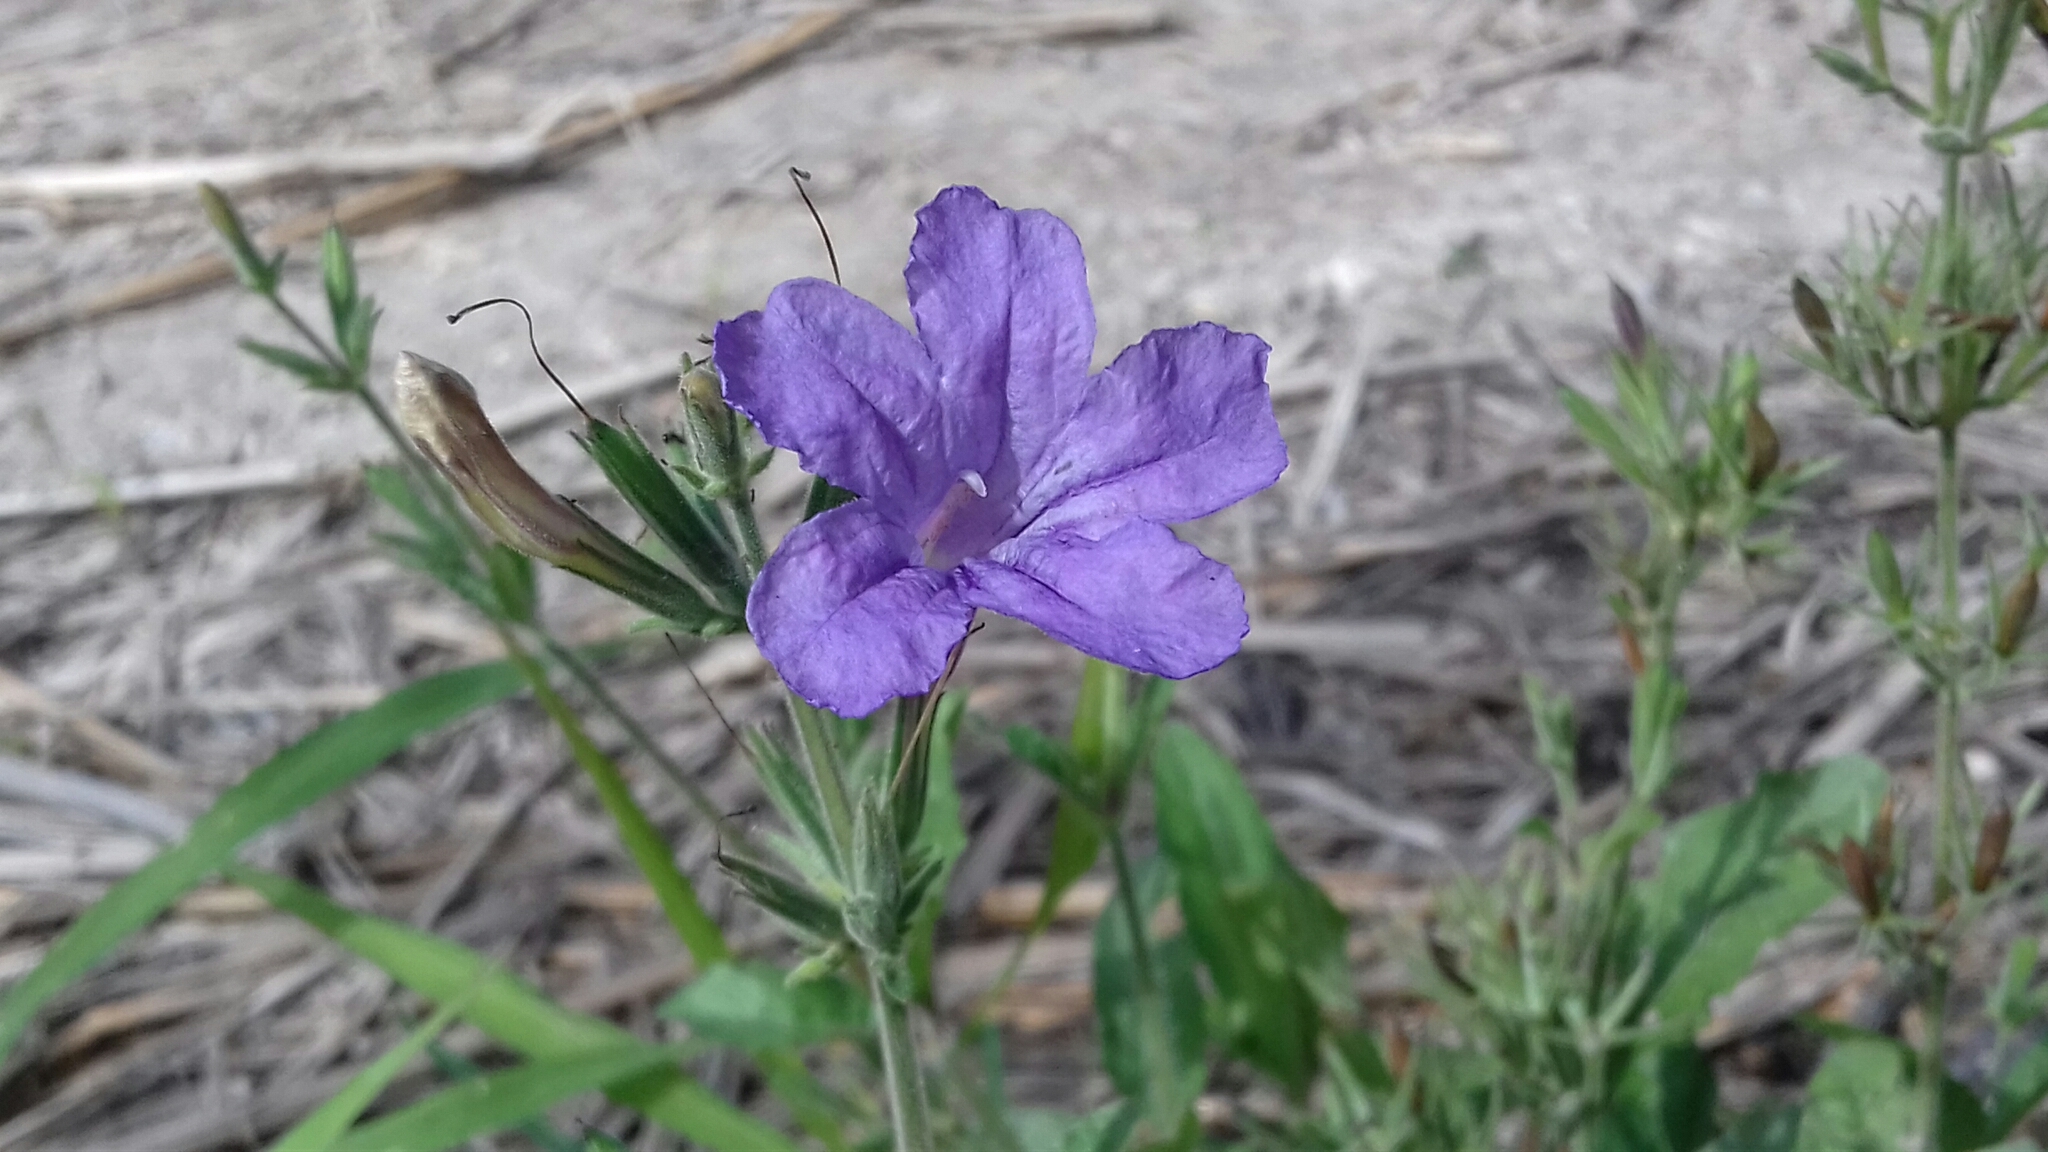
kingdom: Plantae
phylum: Tracheophyta
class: Magnoliopsida
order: Lamiales
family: Acanthaceae
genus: Ruellia
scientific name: Ruellia ciliatiflora
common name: Hairyflower wild petunia
